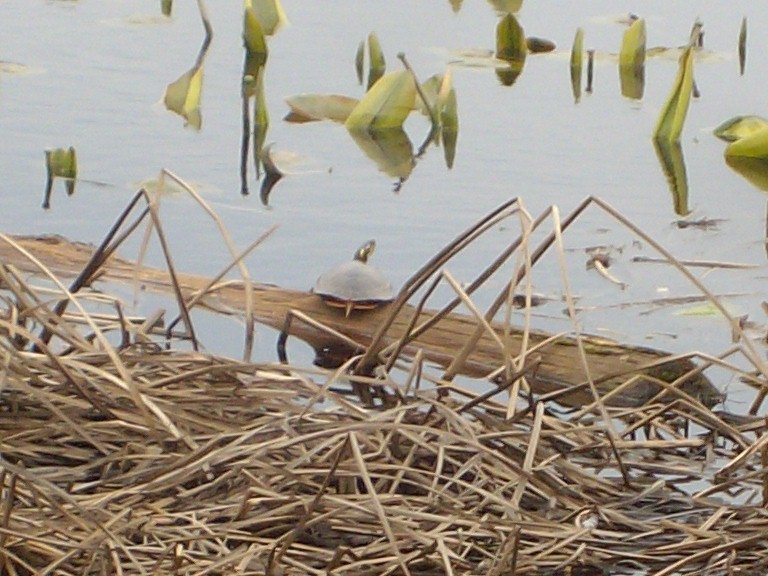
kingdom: Animalia
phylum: Chordata
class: Testudines
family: Emydidae
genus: Chrysemys
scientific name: Chrysemys picta
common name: Painted turtle
